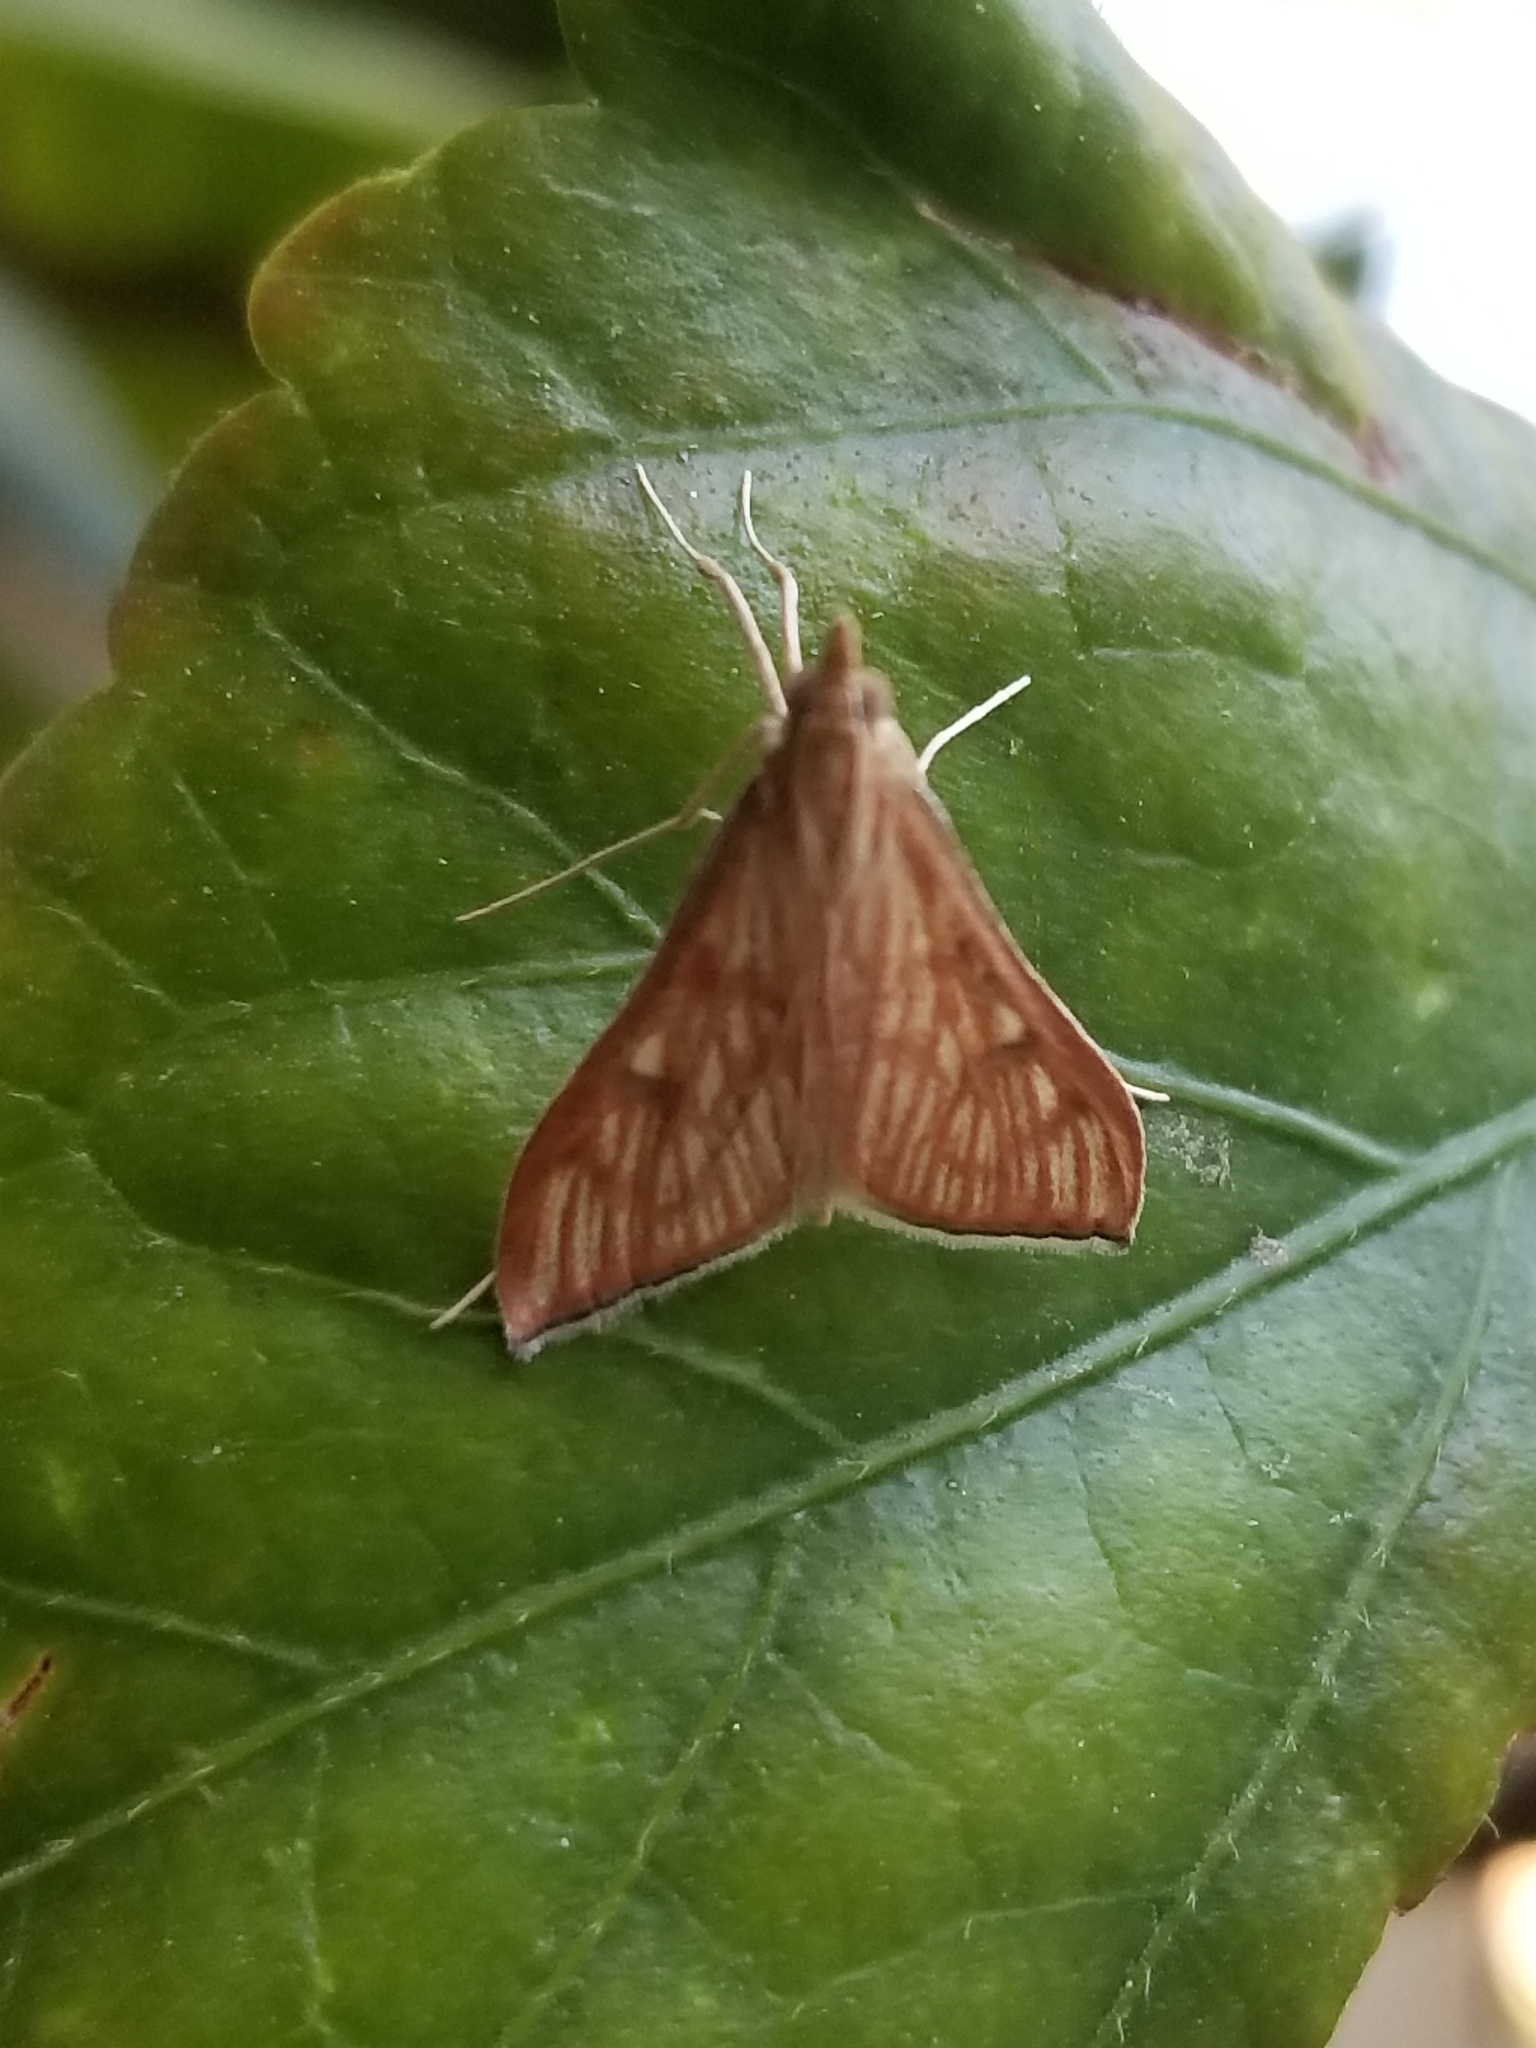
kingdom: Animalia
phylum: Arthropoda
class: Insecta
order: Lepidoptera
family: Crambidae
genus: Antigastra
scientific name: Antigastra catalaunalis
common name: Spanish dot
